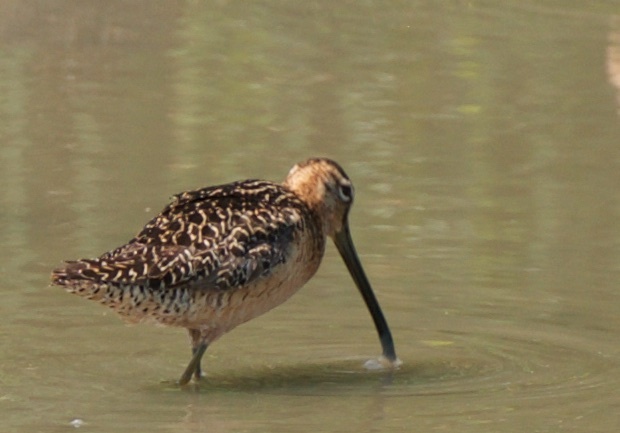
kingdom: Animalia
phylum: Chordata
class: Aves
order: Charadriiformes
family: Scolopacidae
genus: Limnodromus
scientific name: Limnodromus scolopaceus
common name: Long-billed dowitcher
